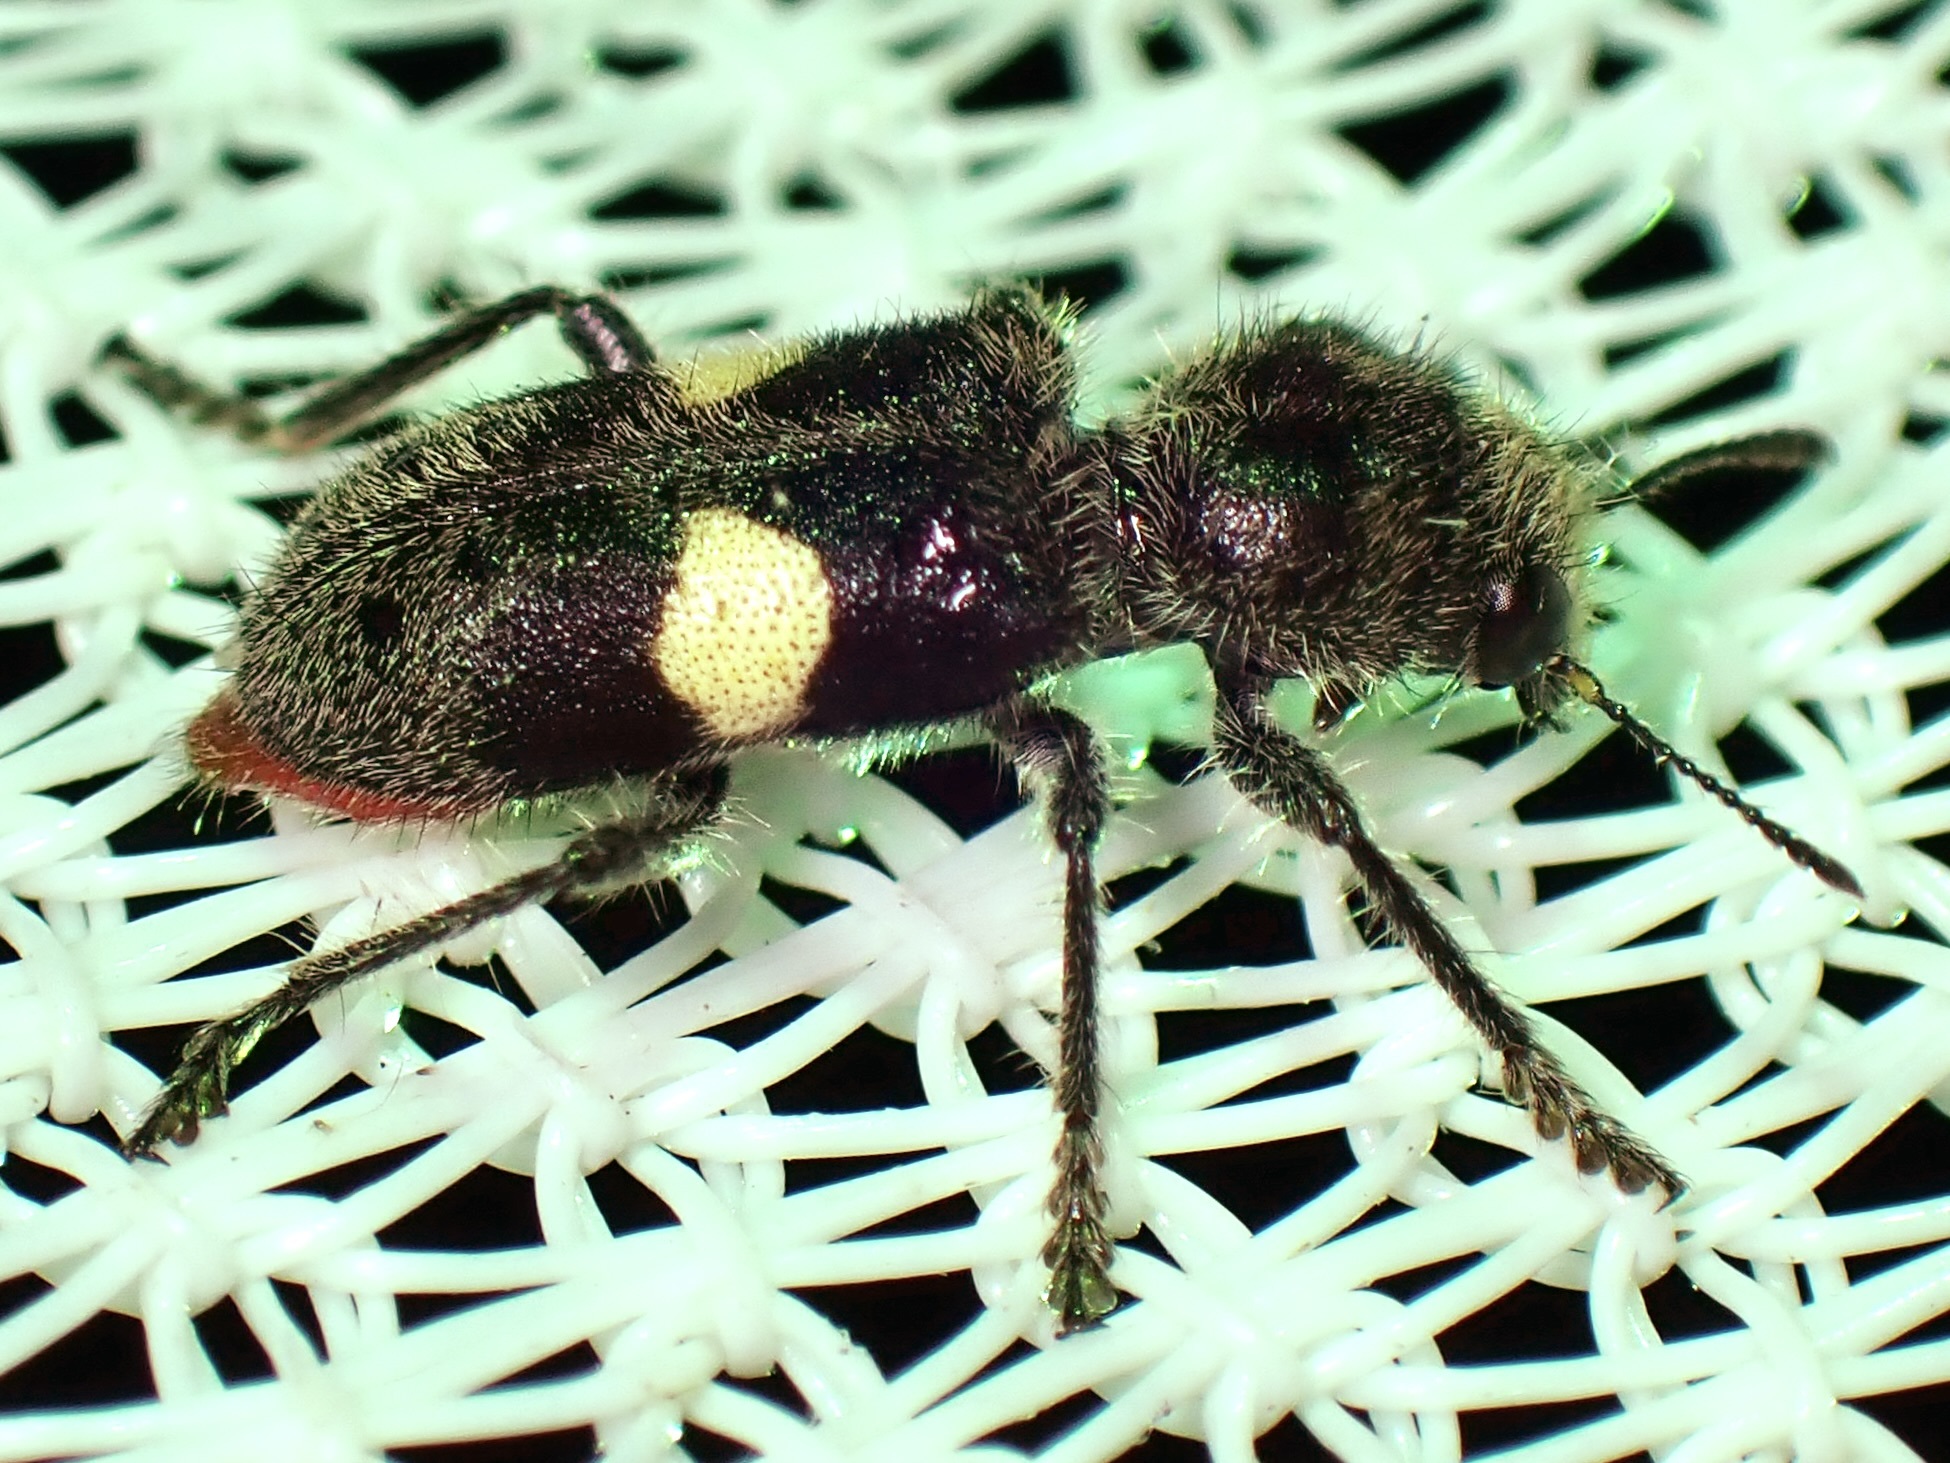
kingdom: Animalia
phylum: Arthropoda
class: Insecta
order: Coleoptera
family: Cleridae
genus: Enoclerus
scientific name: Enoclerus bimaculatus
